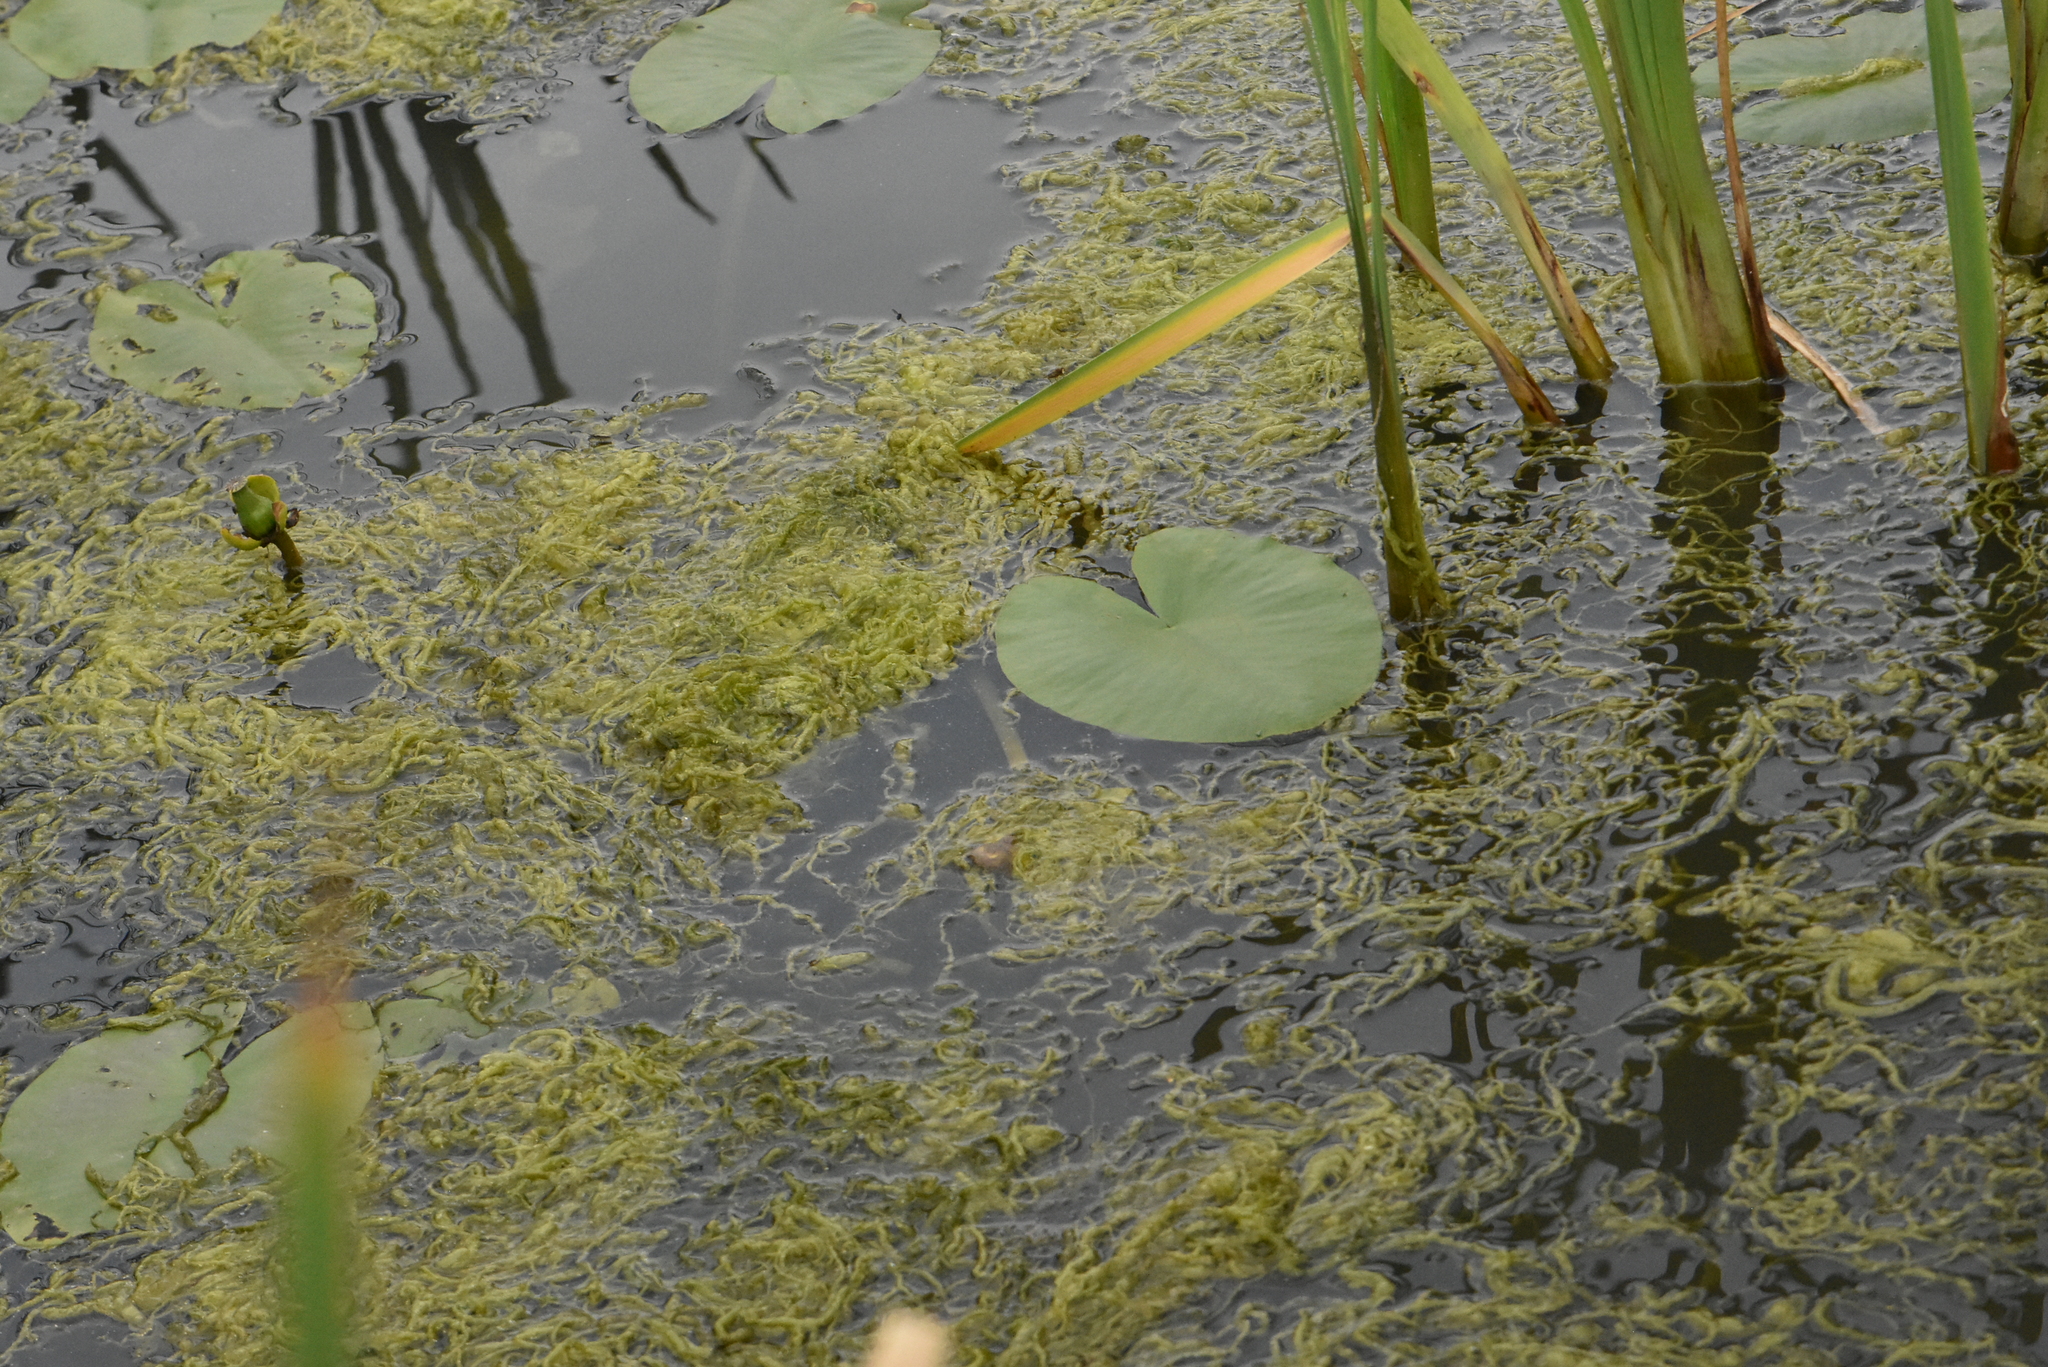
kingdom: Plantae
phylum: Chlorophyta
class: Ulvophyceae
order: Ulvales
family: Ulvaceae
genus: Ulva
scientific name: Ulva intestinalis
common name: Gut weed
